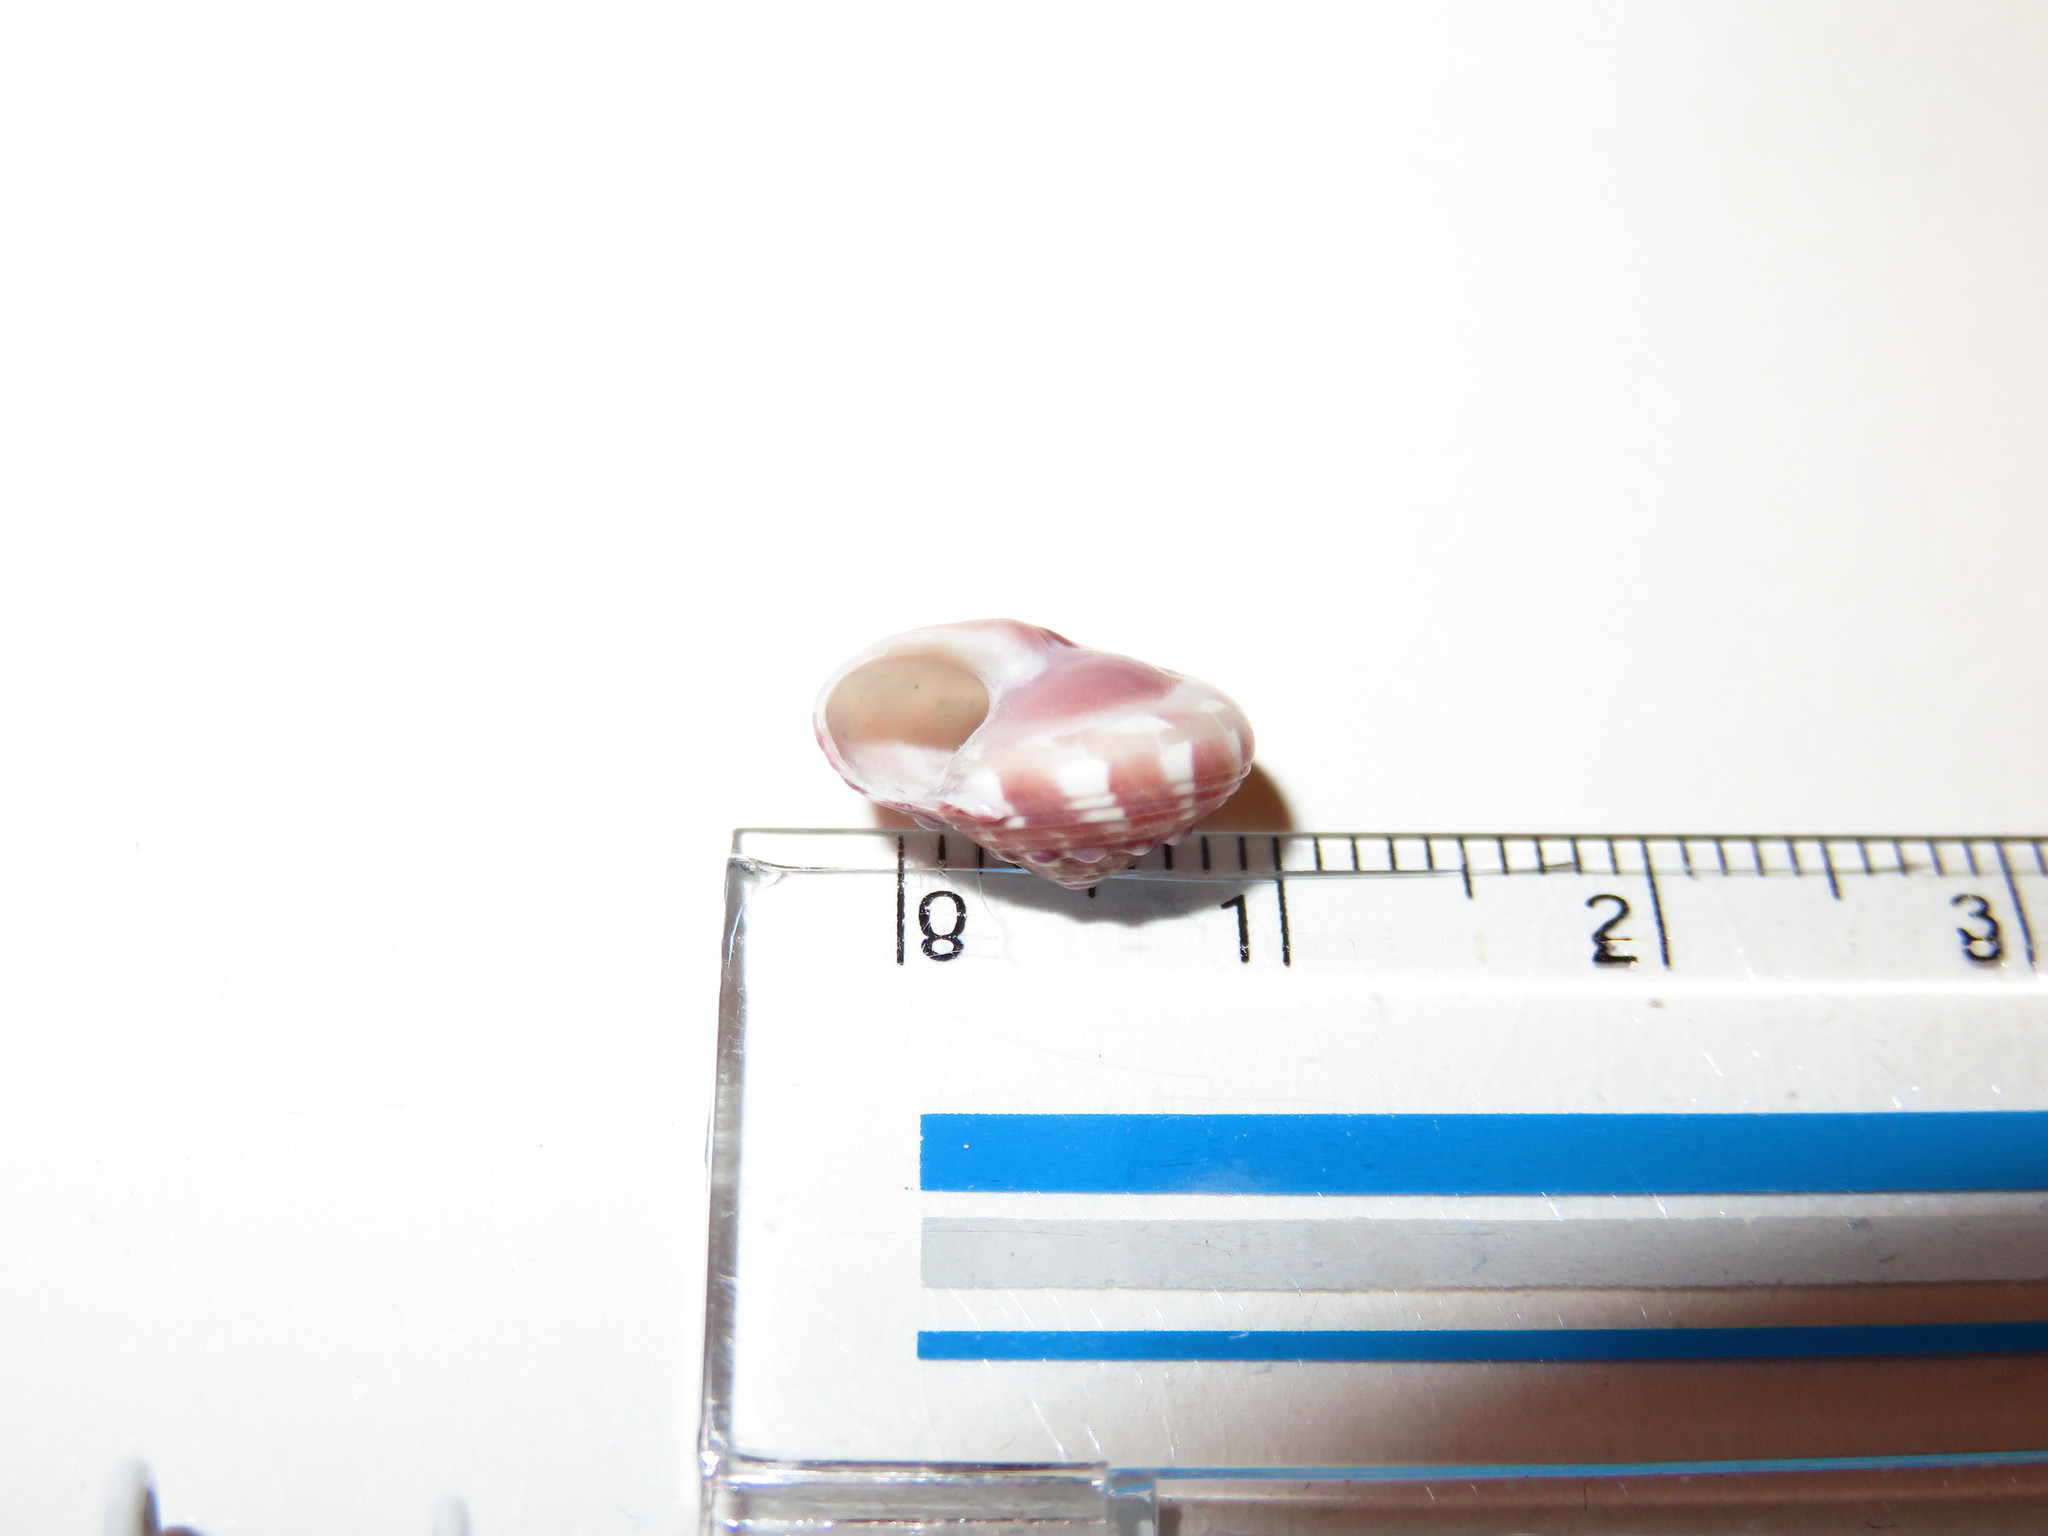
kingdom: Animalia
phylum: Mollusca
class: Gastropoda
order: Trochida
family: Trochidae
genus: Umbonium
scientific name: Umbonium moniliferum
